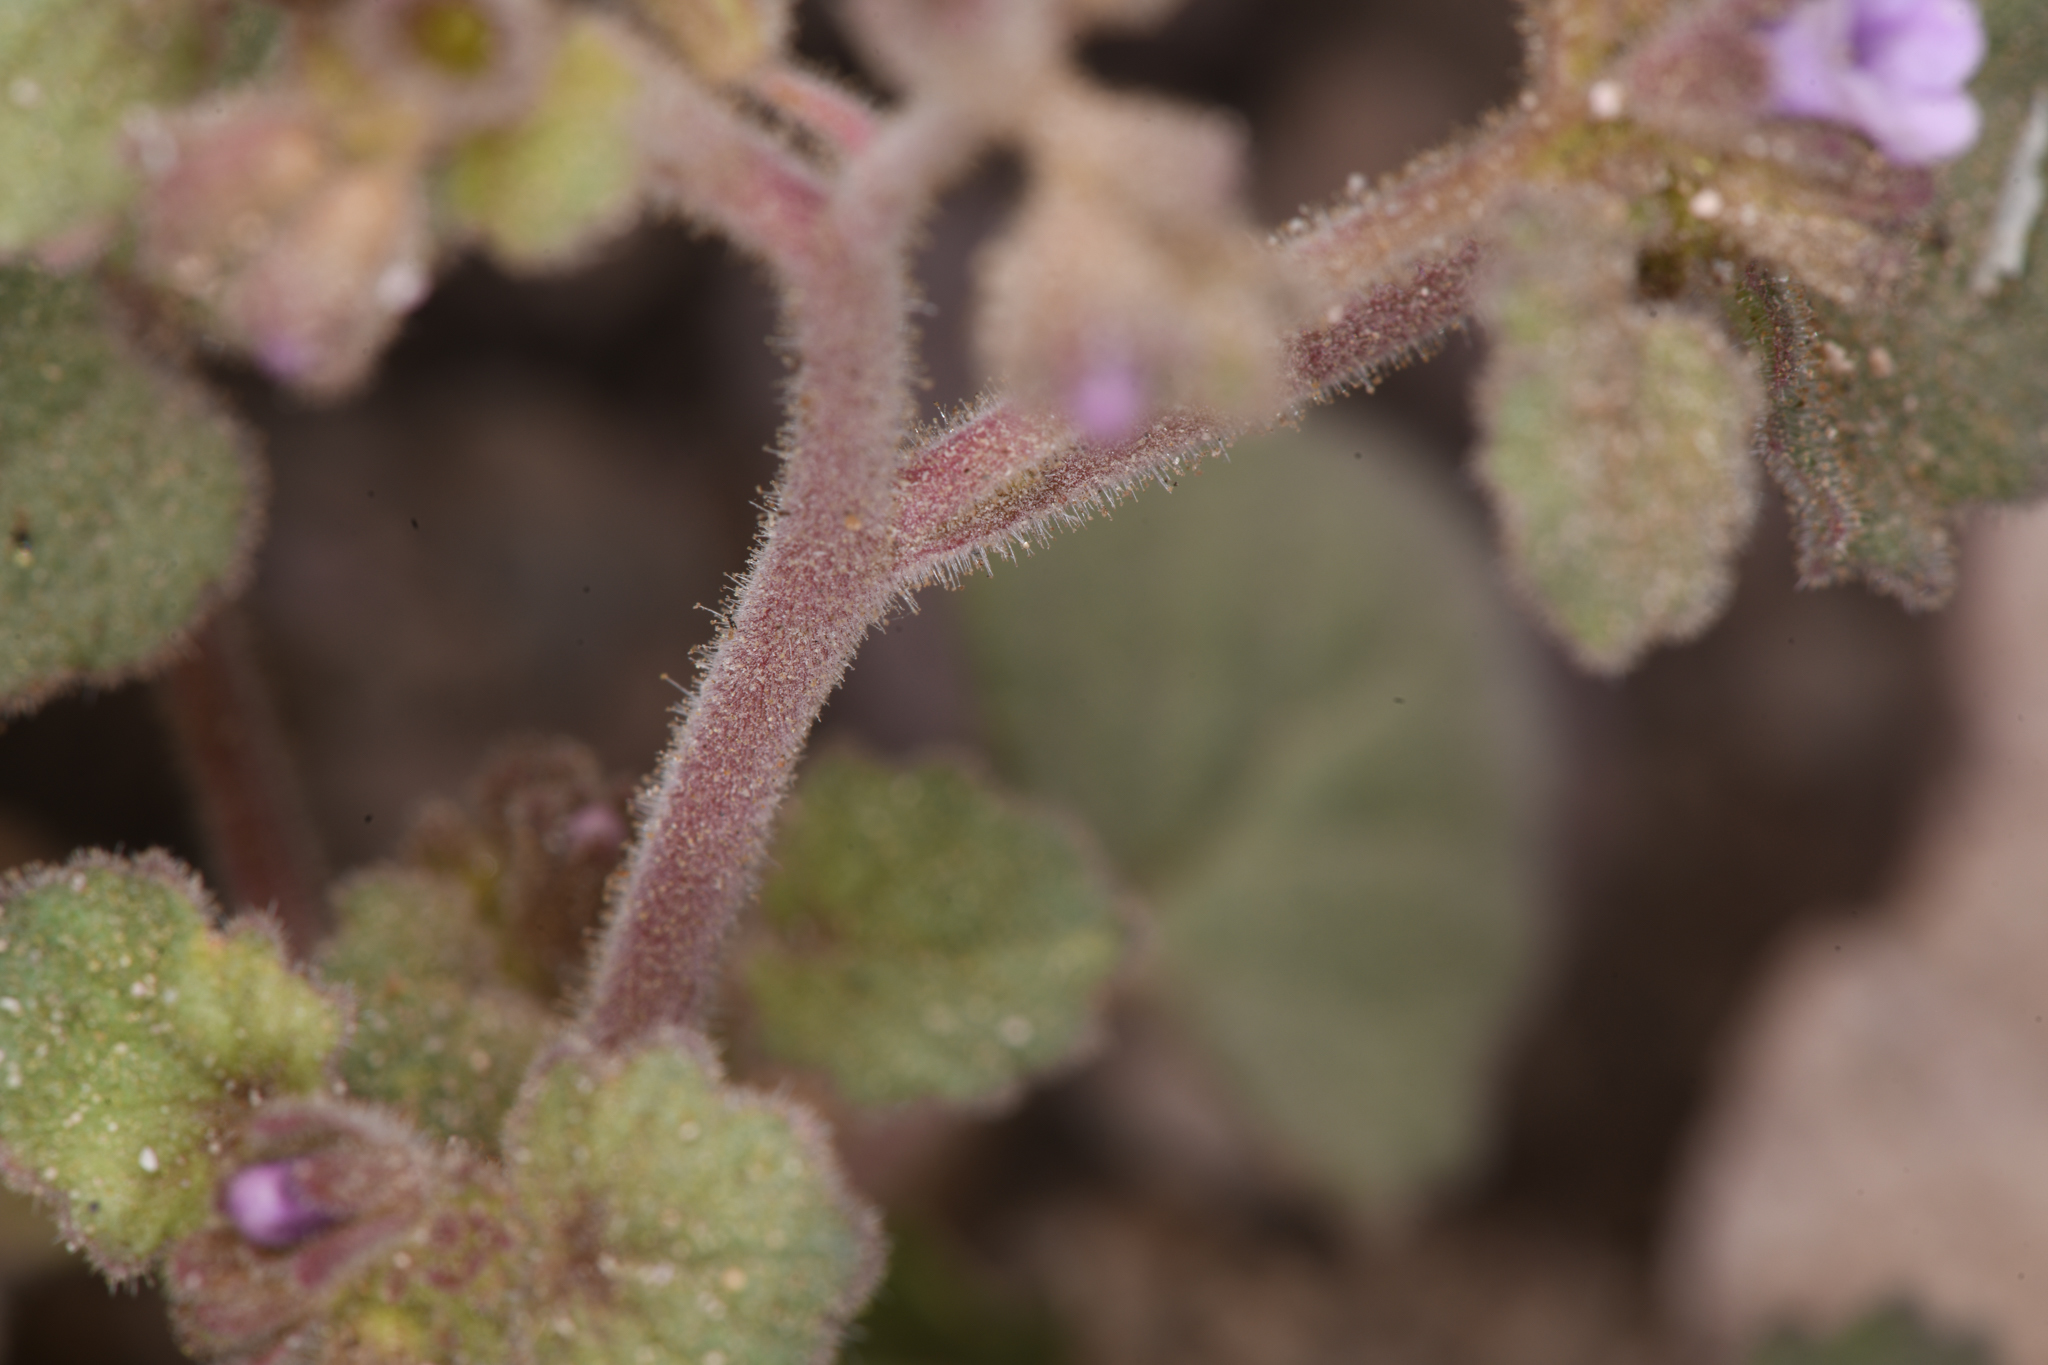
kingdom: Plantae
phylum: Tracheophyta
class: Magnoliopsida
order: Boraginales
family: Hydrophyllaceae
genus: Phacelia
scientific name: Phacelia peirsoniana
